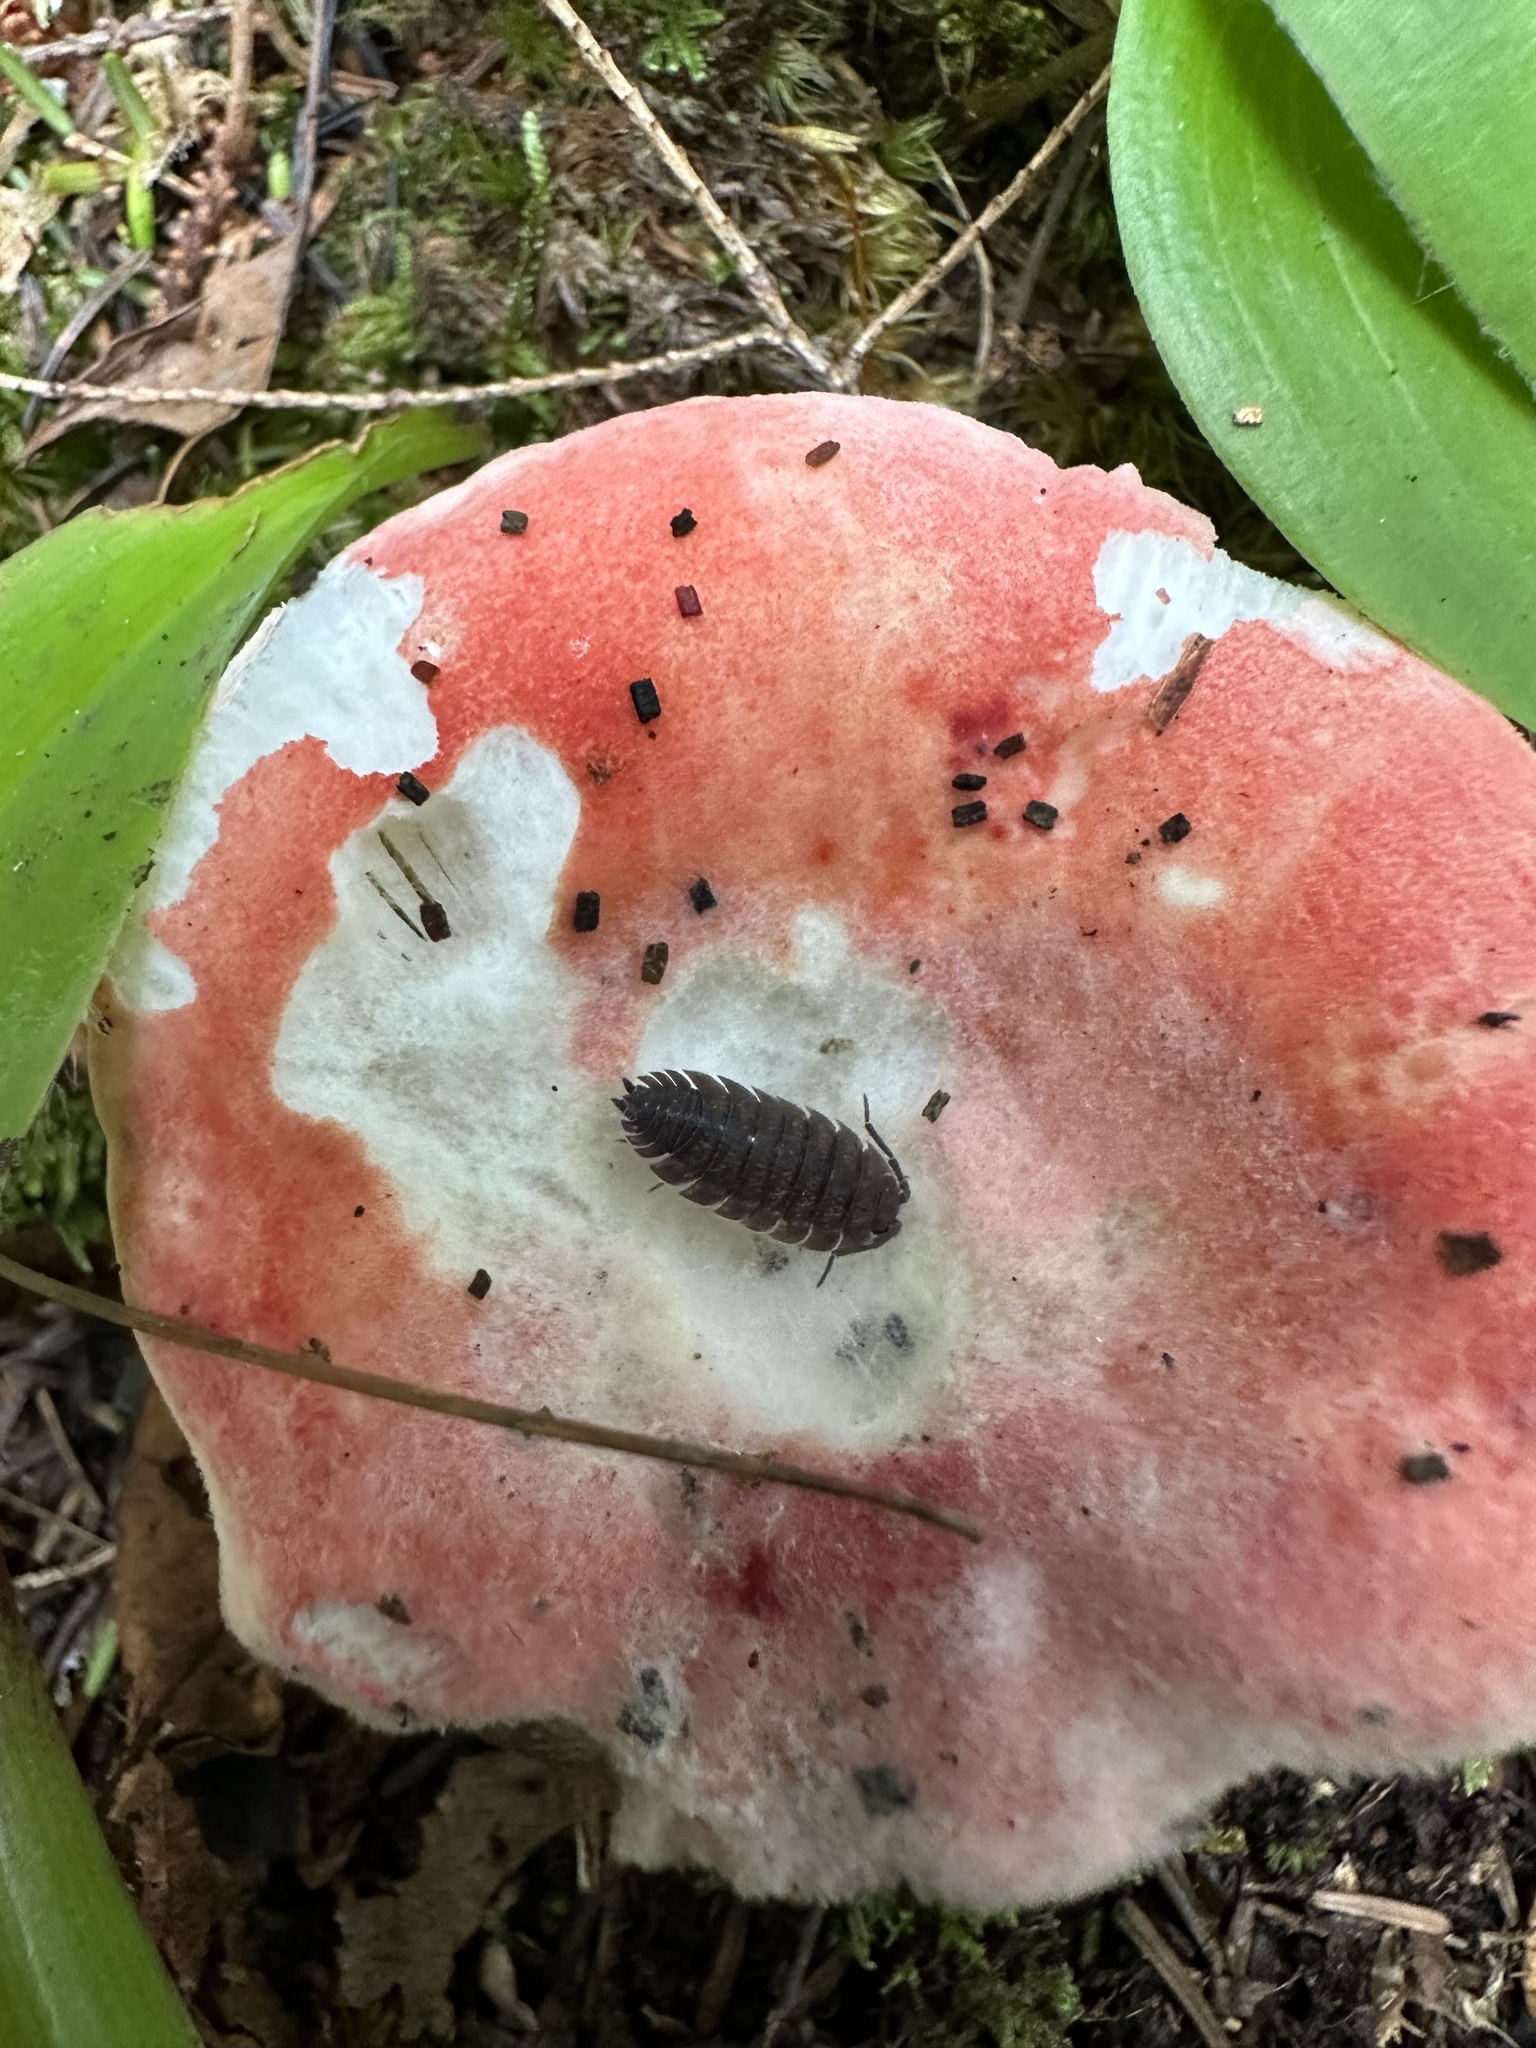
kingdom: Animalia
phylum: Arthropoda
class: Malacostraca
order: Isopoda
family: Porcellionidae
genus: Porcellio
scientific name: Porcellio scaber
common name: Common rough woodlouse
